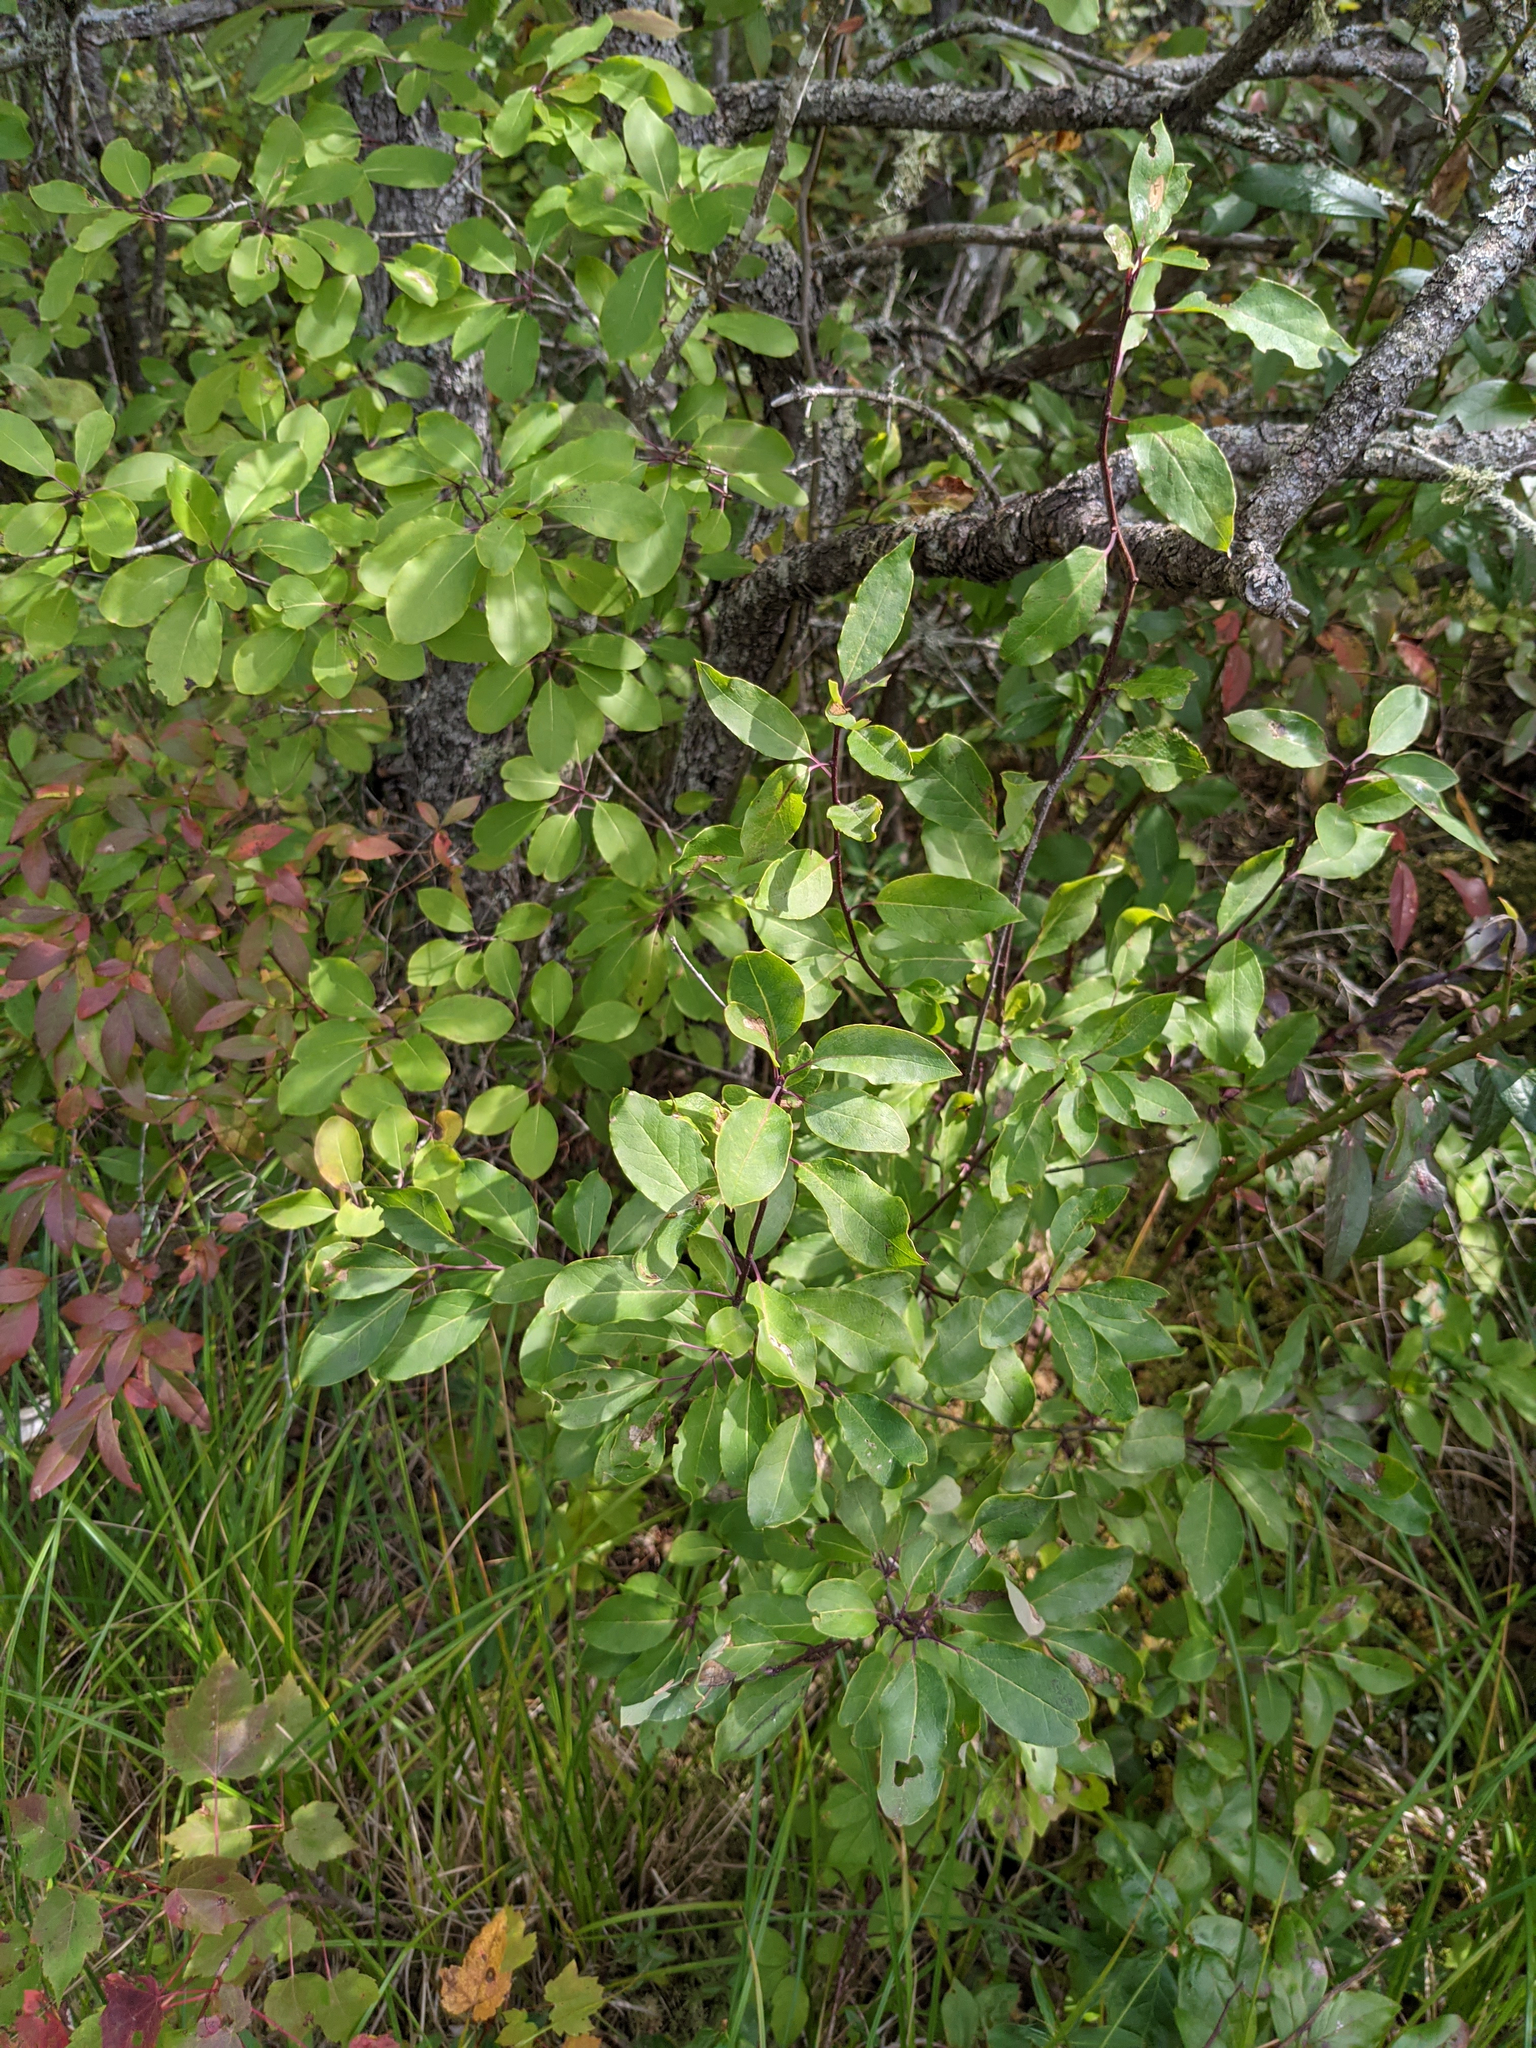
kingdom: Plantae
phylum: Tracheophyta
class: Magnoliopsida
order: Aquifoliales
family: Aquifoliaceae
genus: Ilex
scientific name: Ilex mucronata
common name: Catberry
